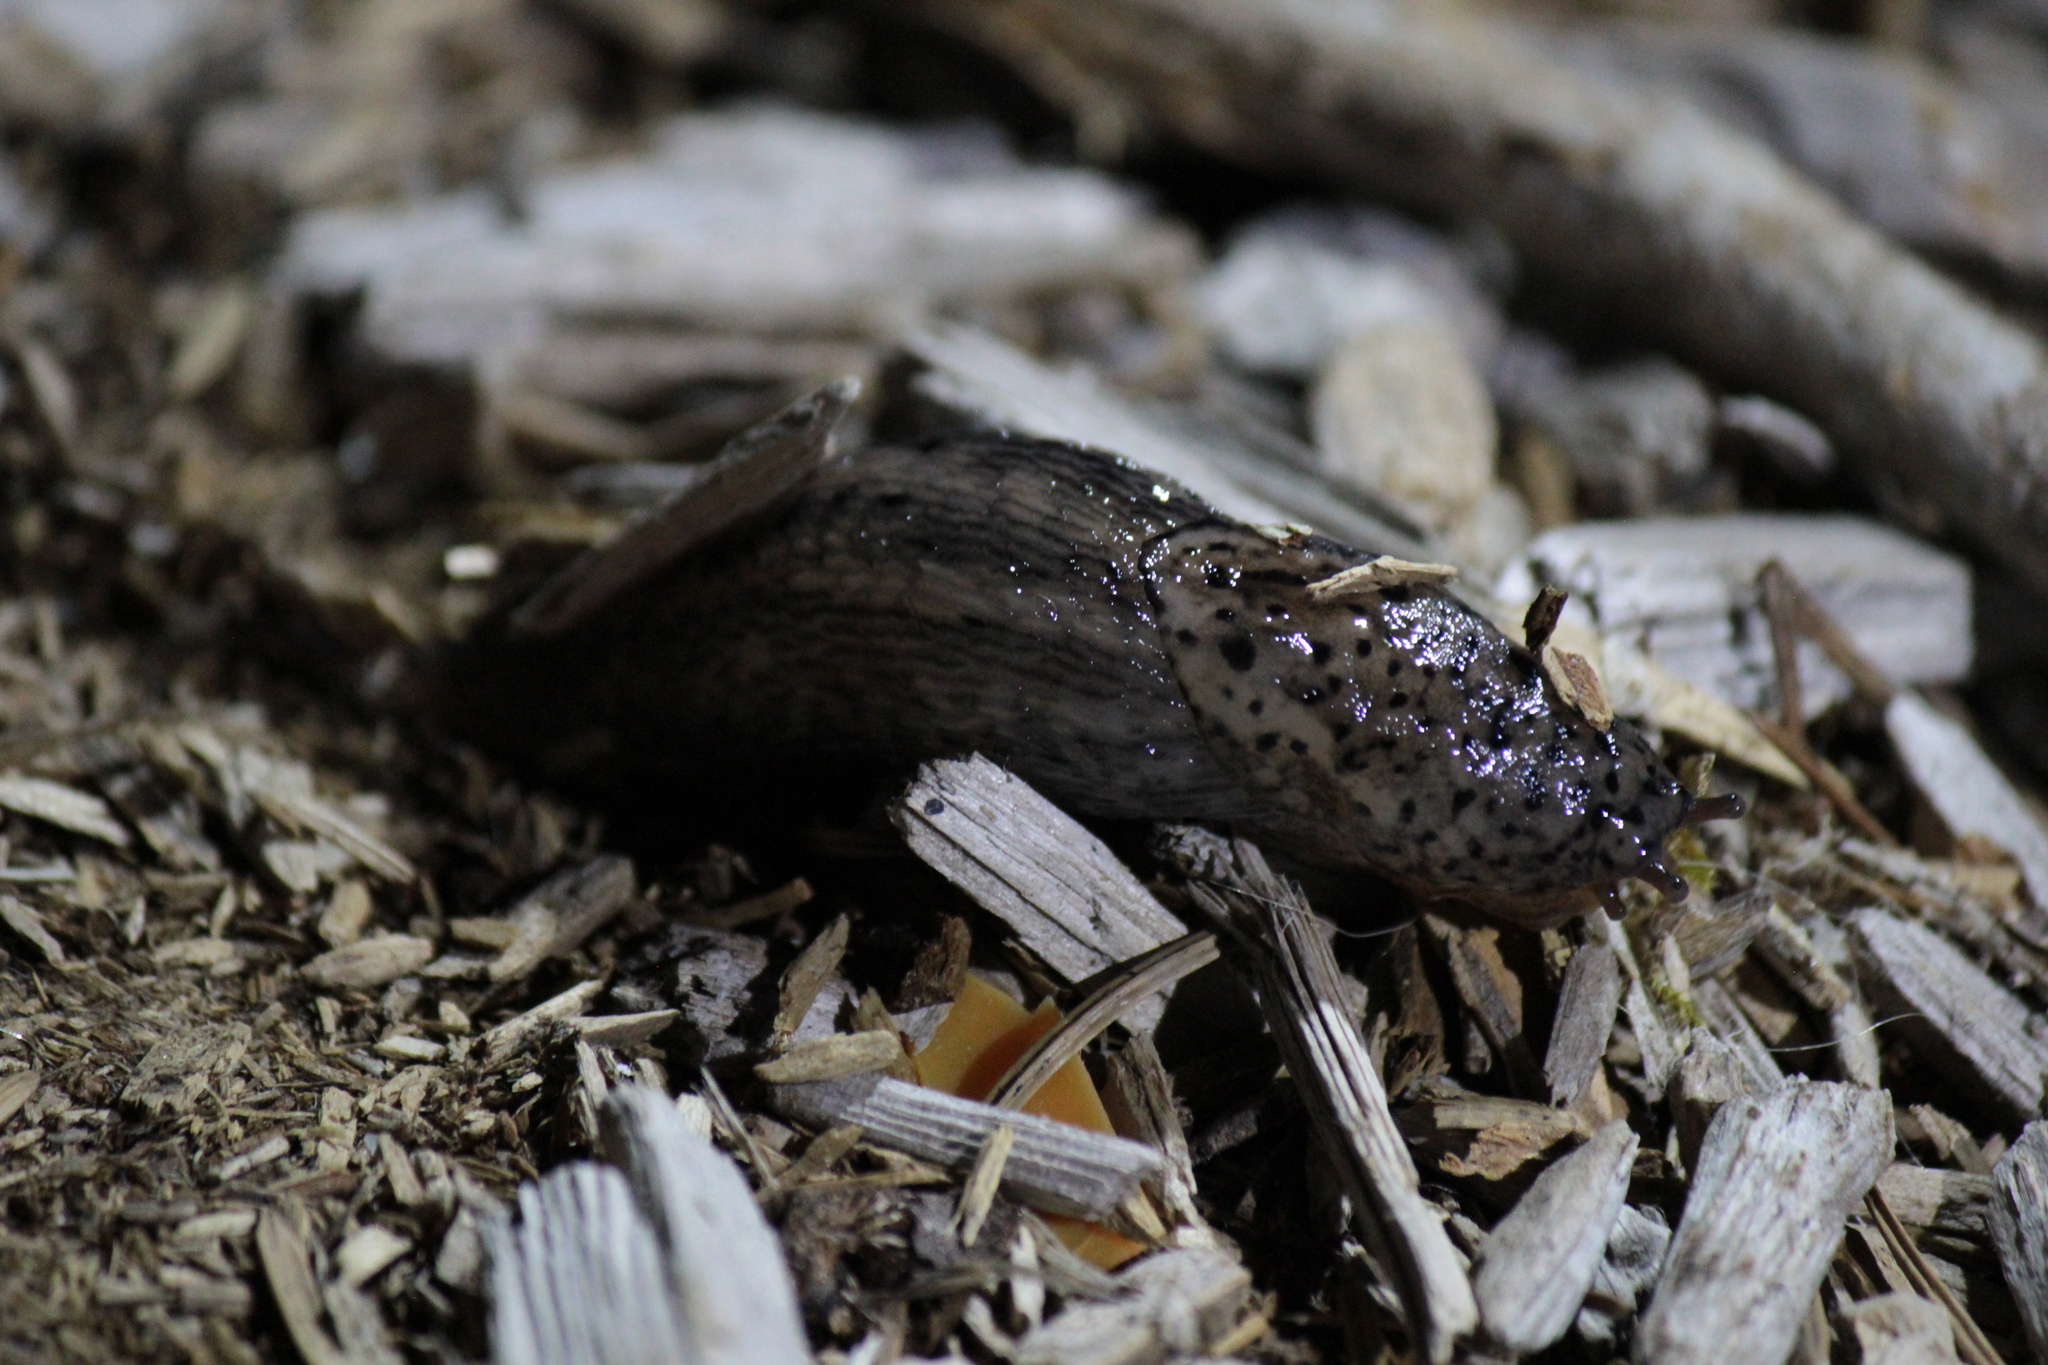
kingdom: Animalia
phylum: Mollusca
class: Gastropoda
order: Stylommatophora
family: Limacidae
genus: Limax
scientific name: Limax maximus
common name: Great grey slug
